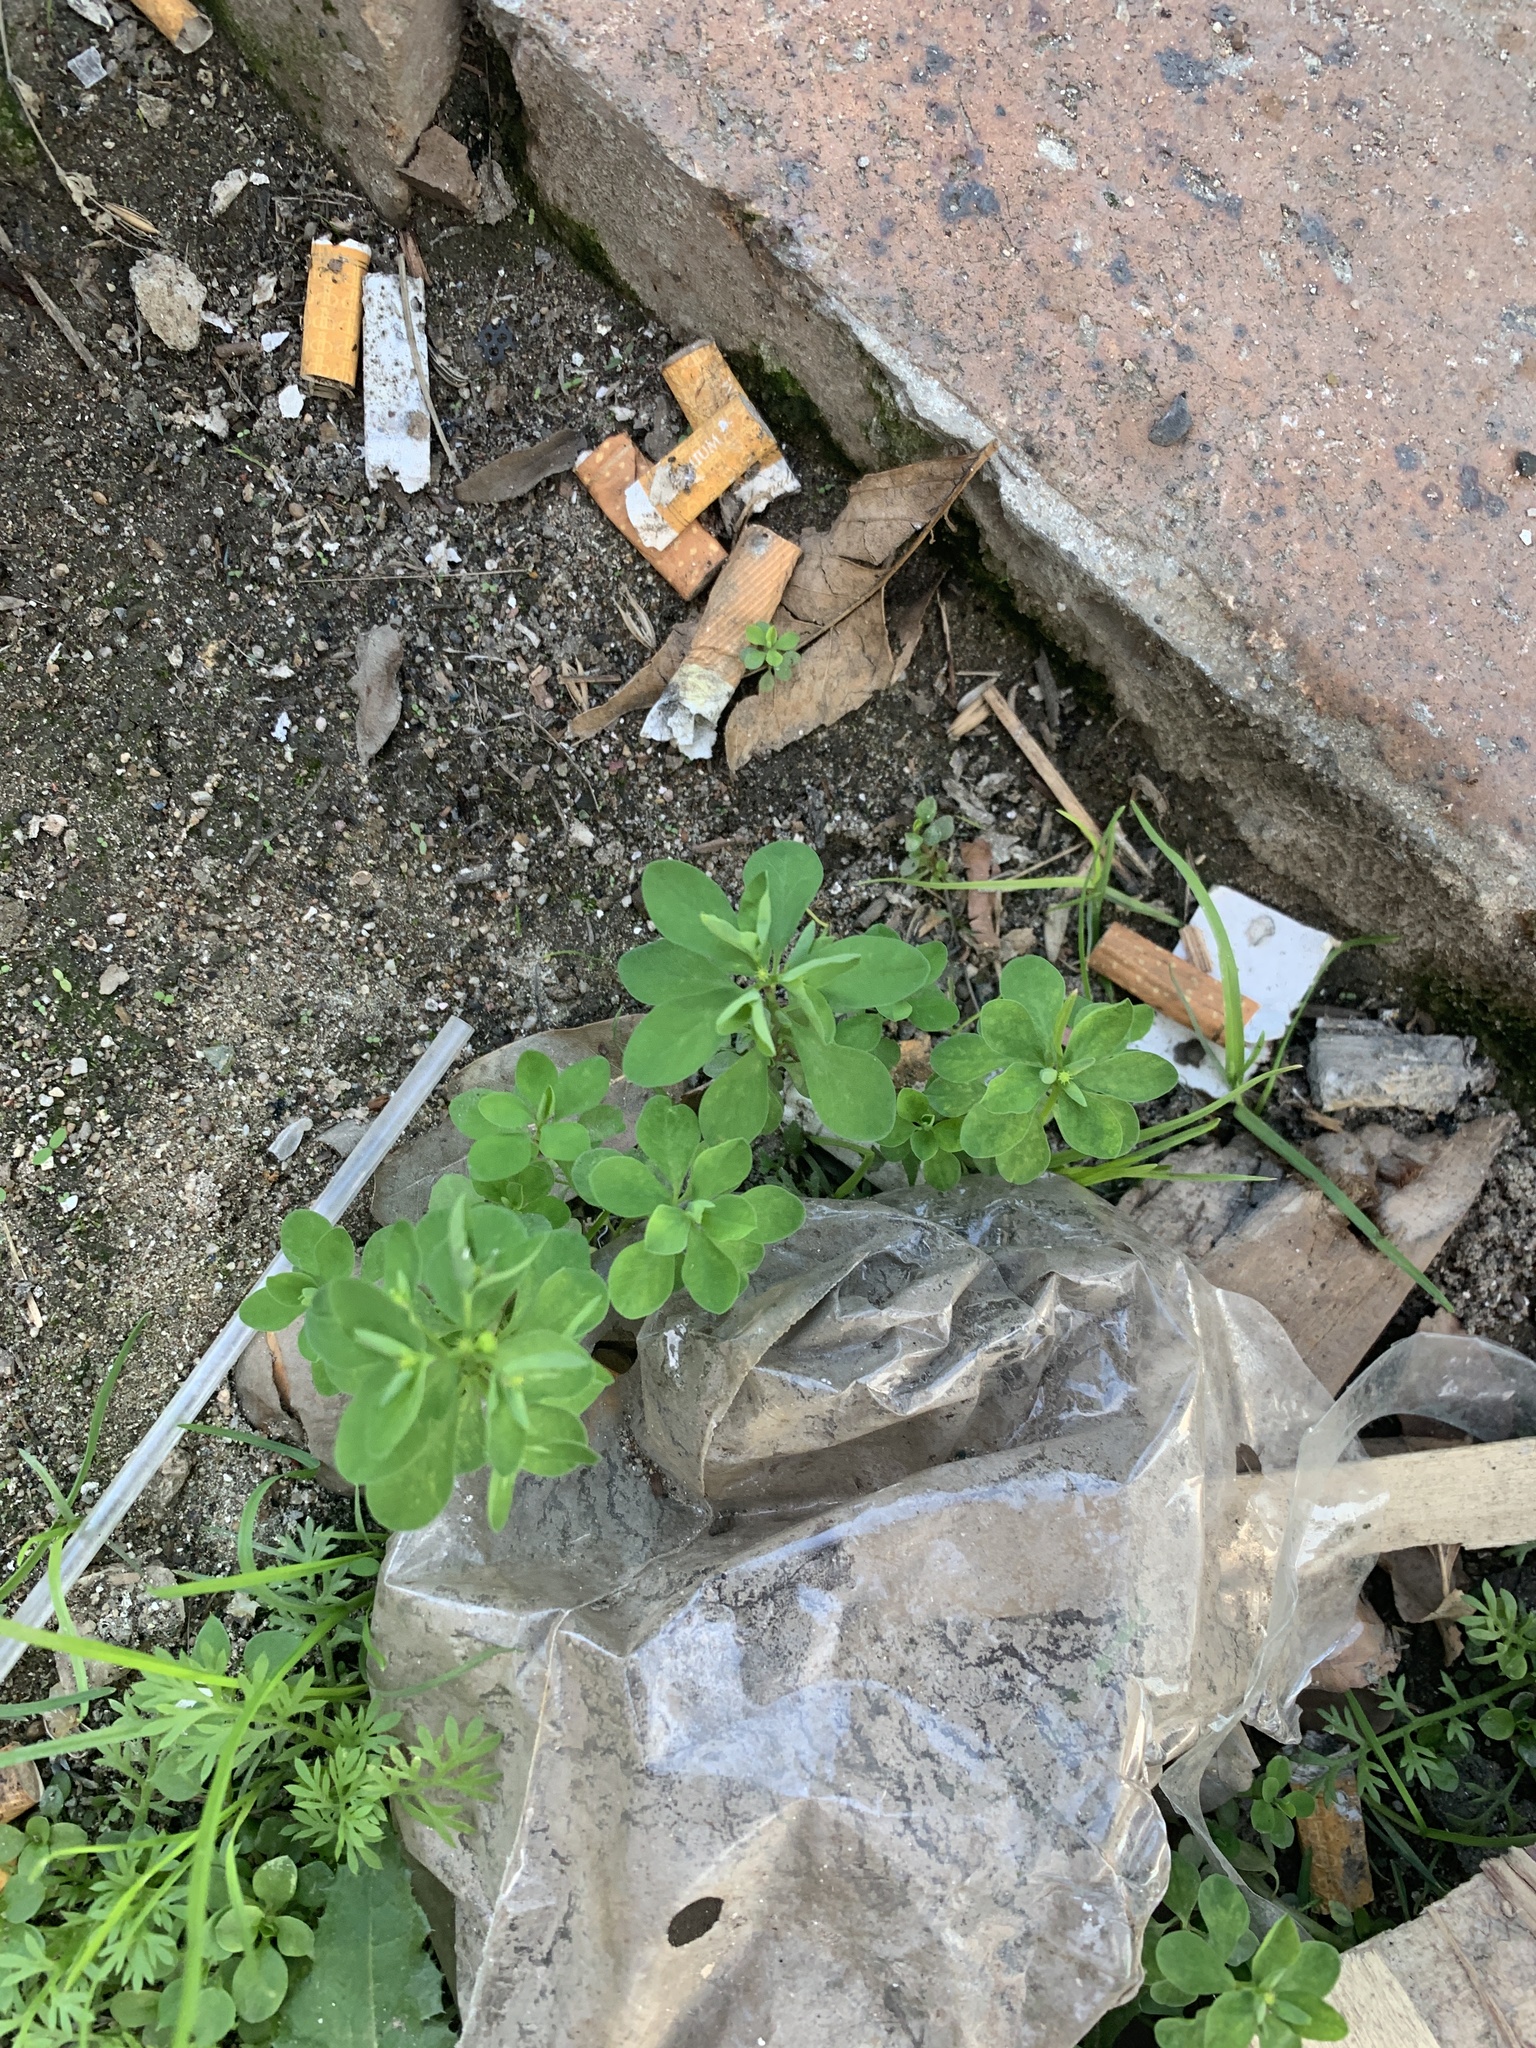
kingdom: Plantae
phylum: Tracheophyta
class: Magnoliopsida
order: Malpighiales
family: Euphorbiaceae
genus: Euphorbia
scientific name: Euphorbia peplus
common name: Petty spurge
